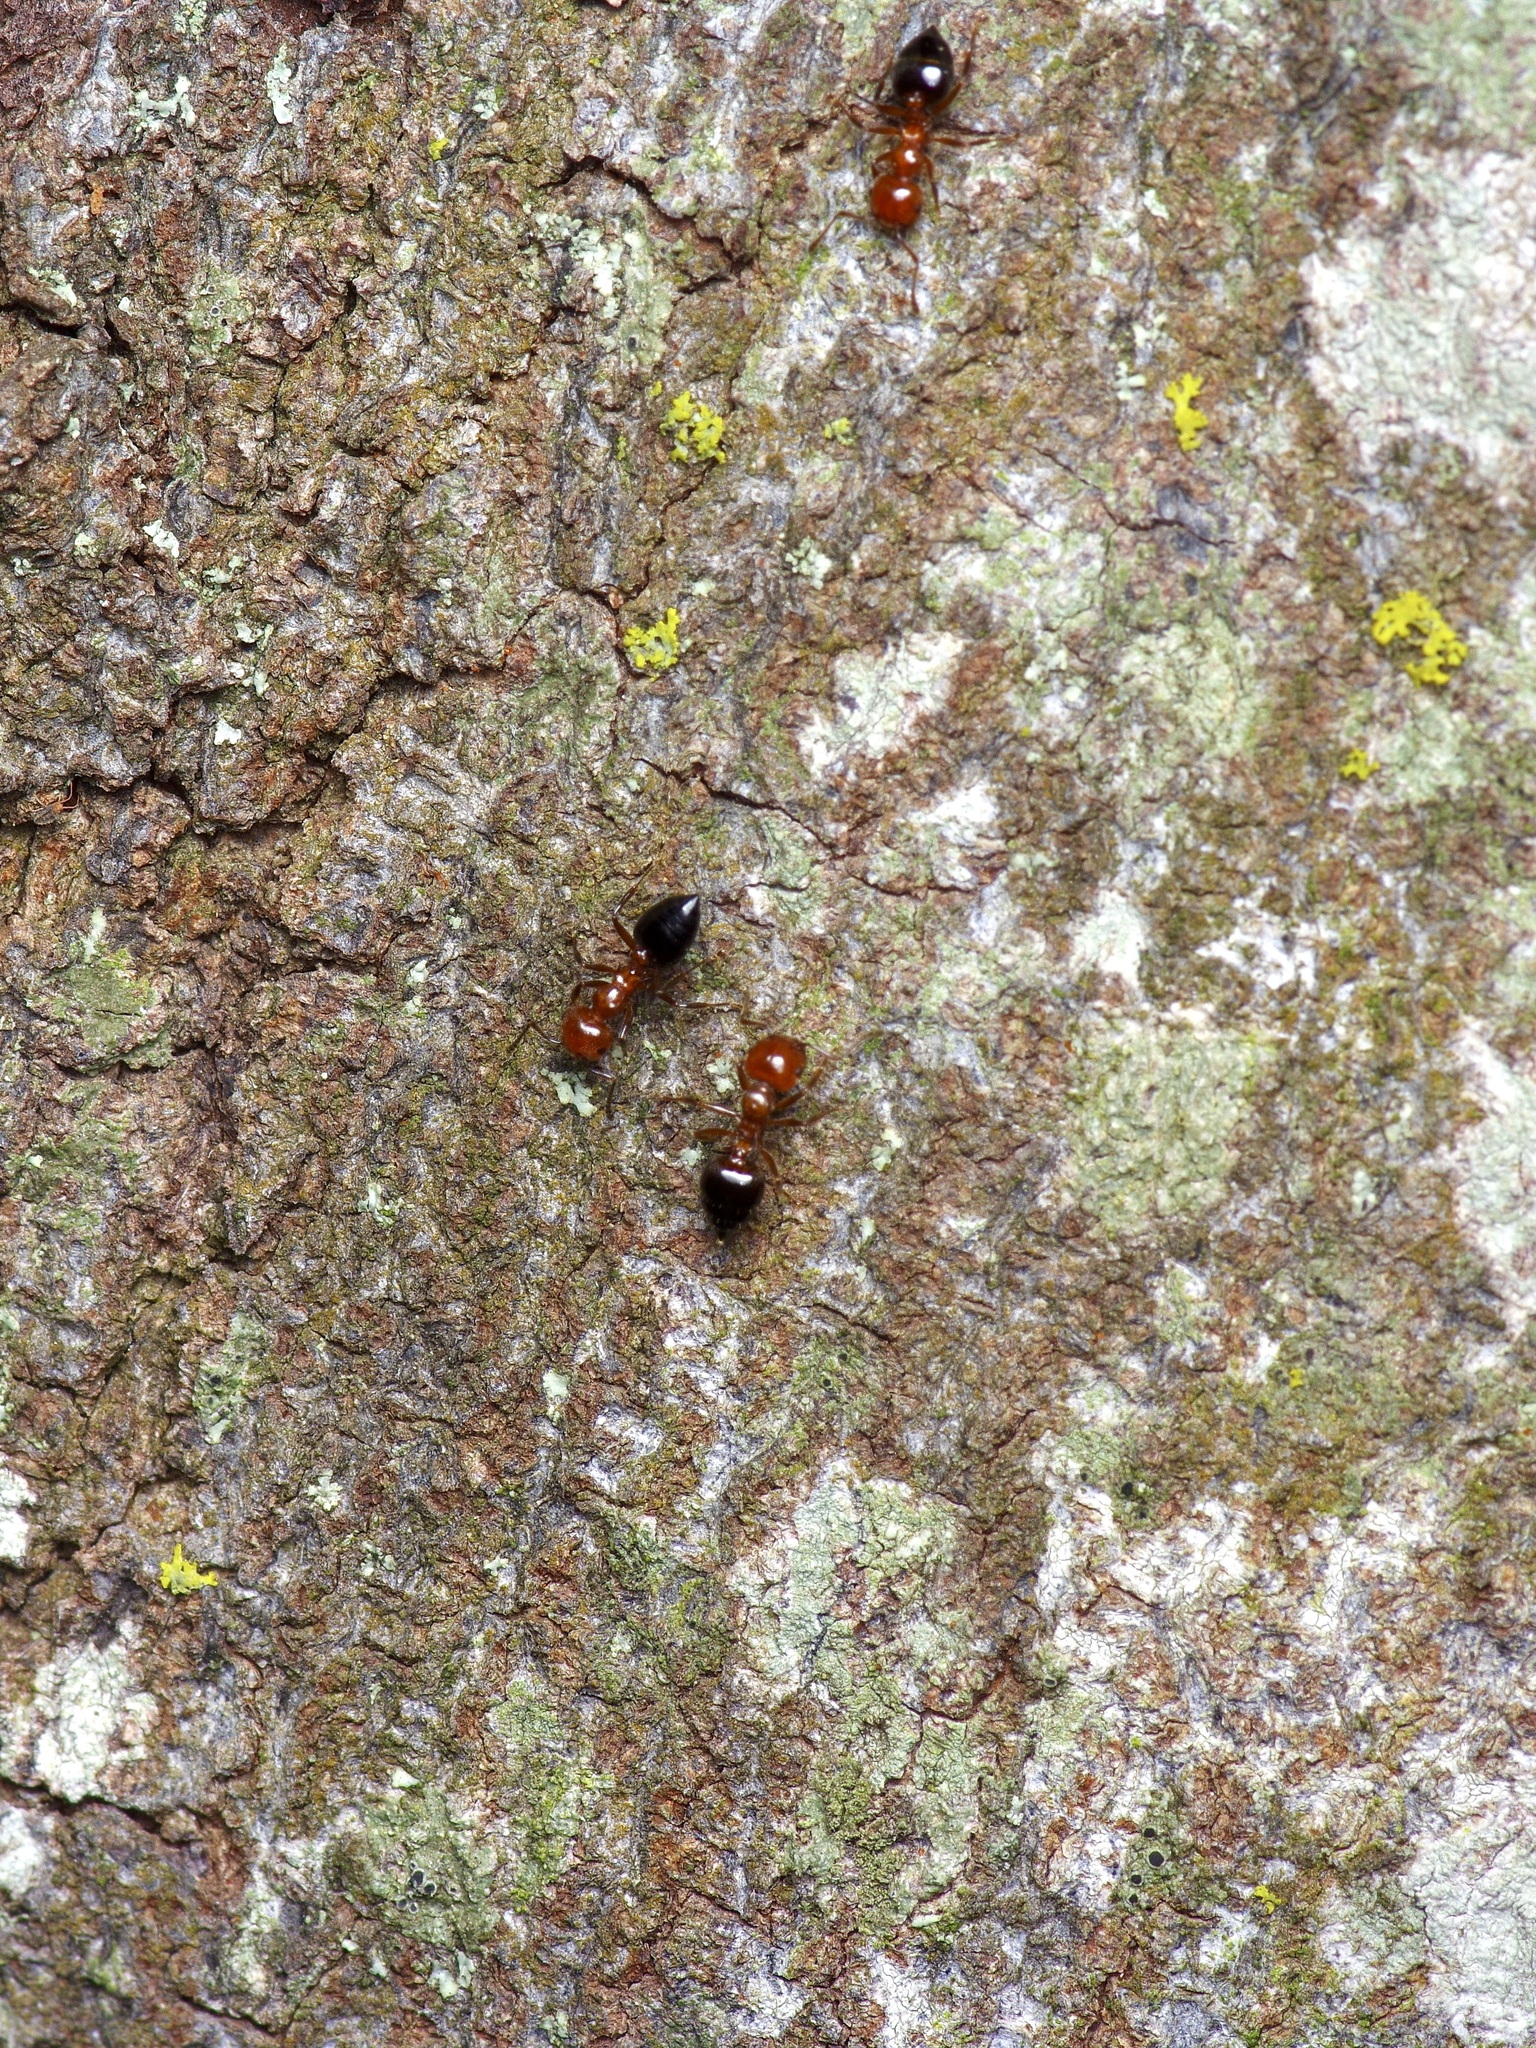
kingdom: Animalia
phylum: Arthropoda
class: Insecta
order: Hymenoptera
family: Formicidae
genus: Crematogaster
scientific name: Crematogaster laeviuscula
